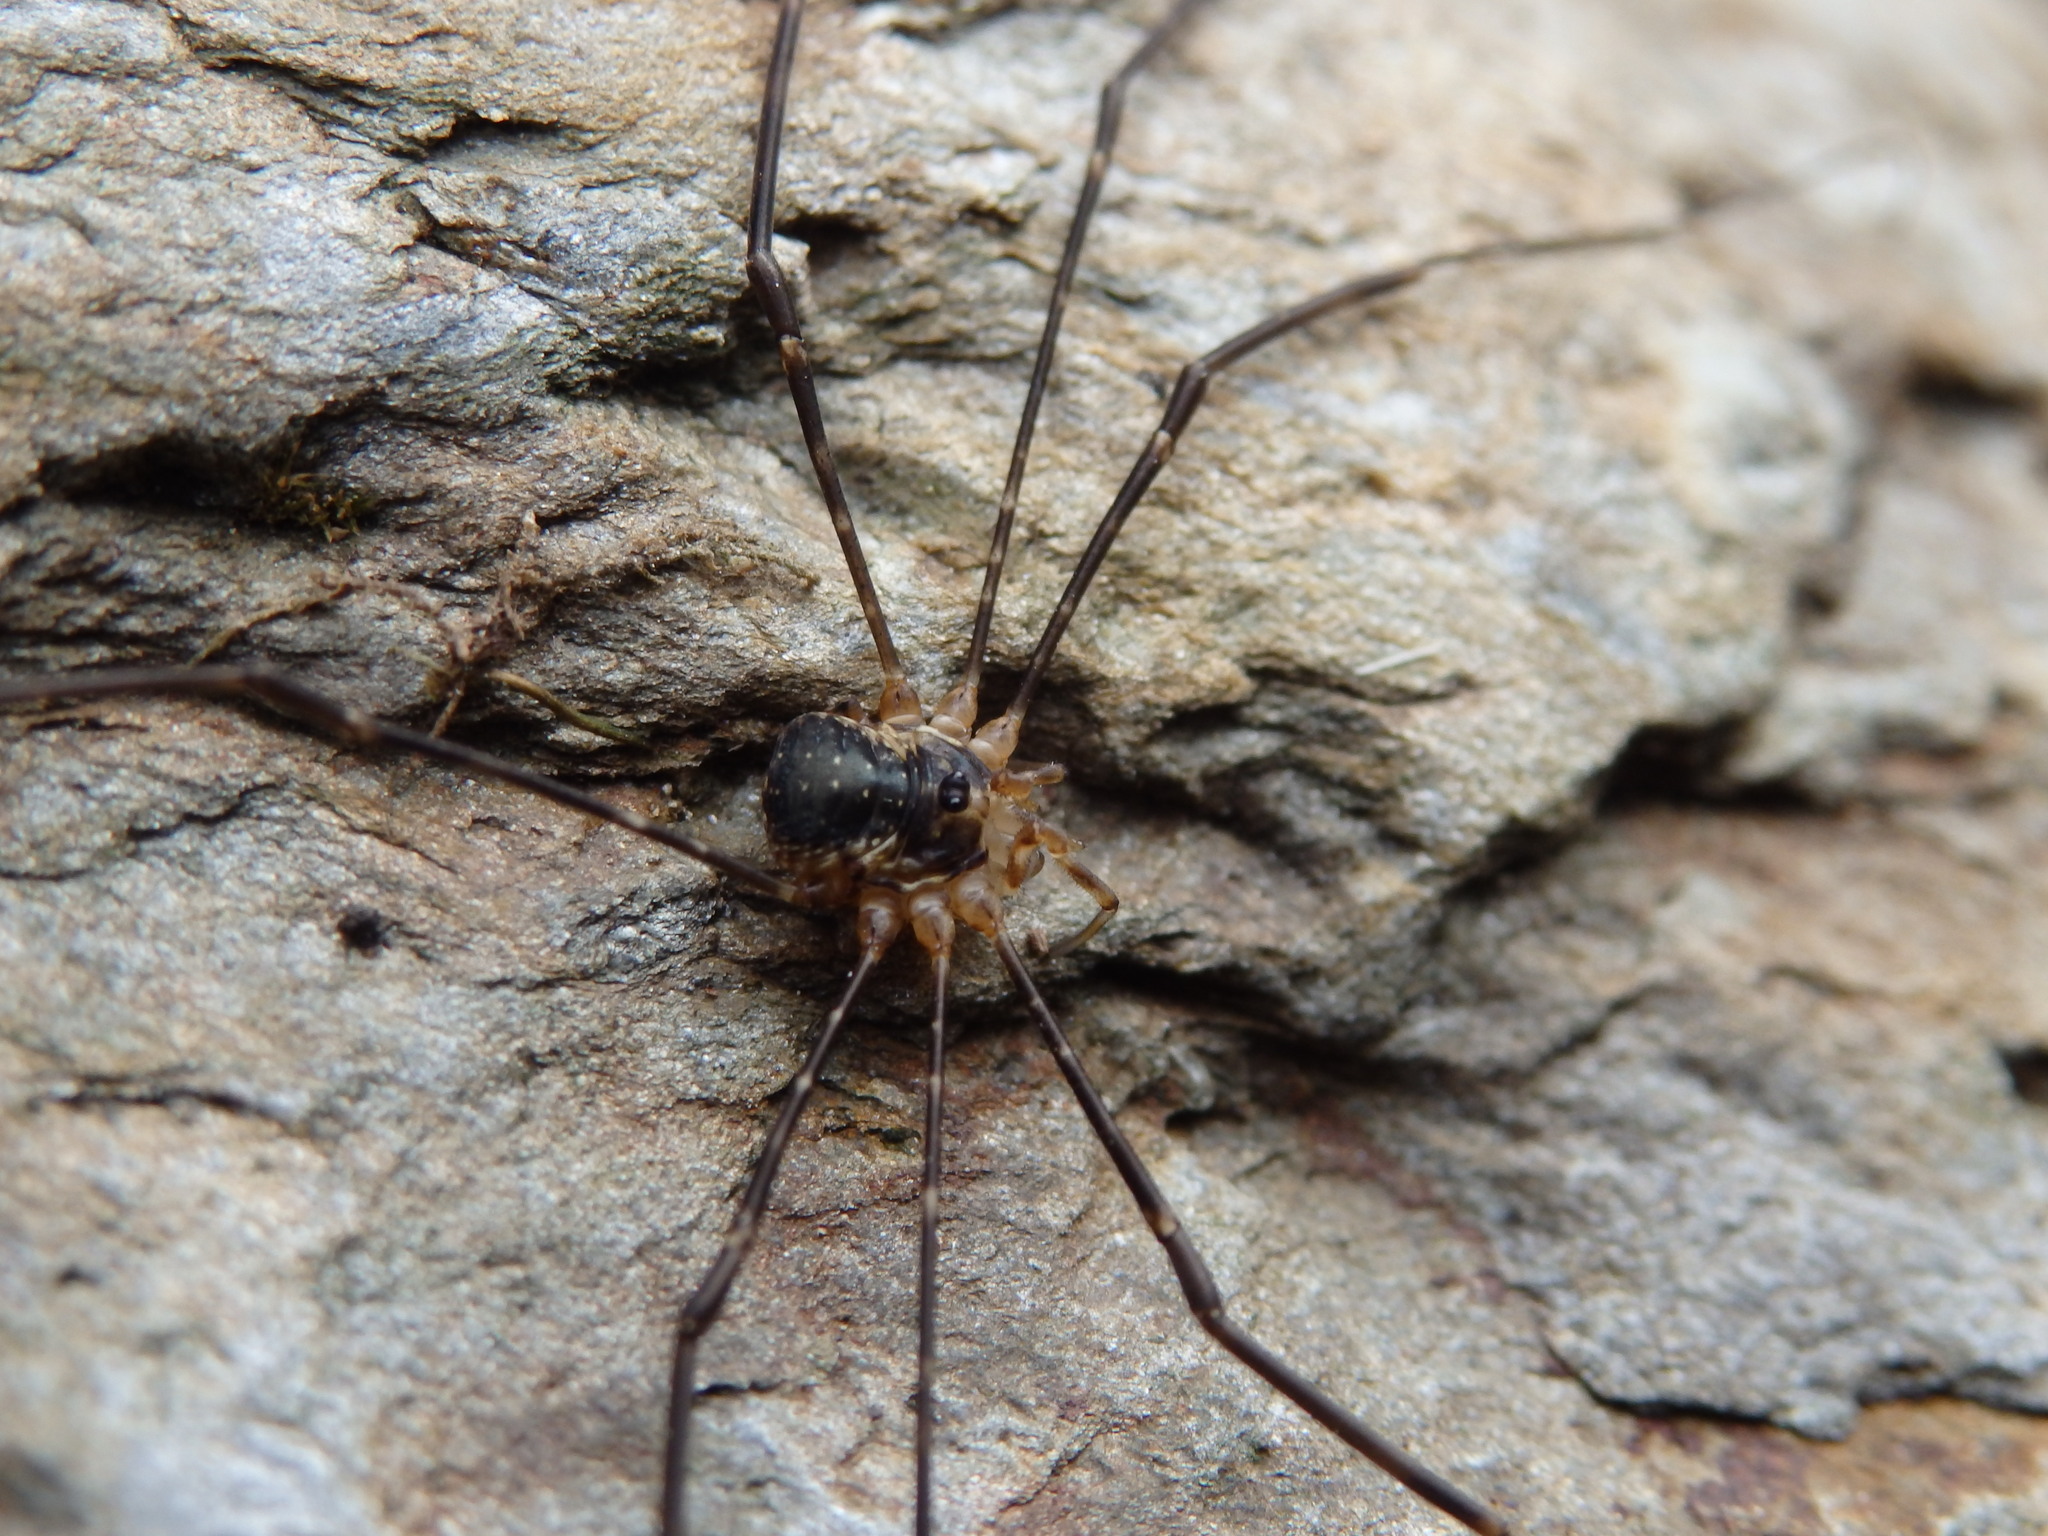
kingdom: Animalia
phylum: Arthropoda
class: Arachnida
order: Opiliones
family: Phalangiidae
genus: Dicranopalpus
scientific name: Dicranopalpus gallaecicus
